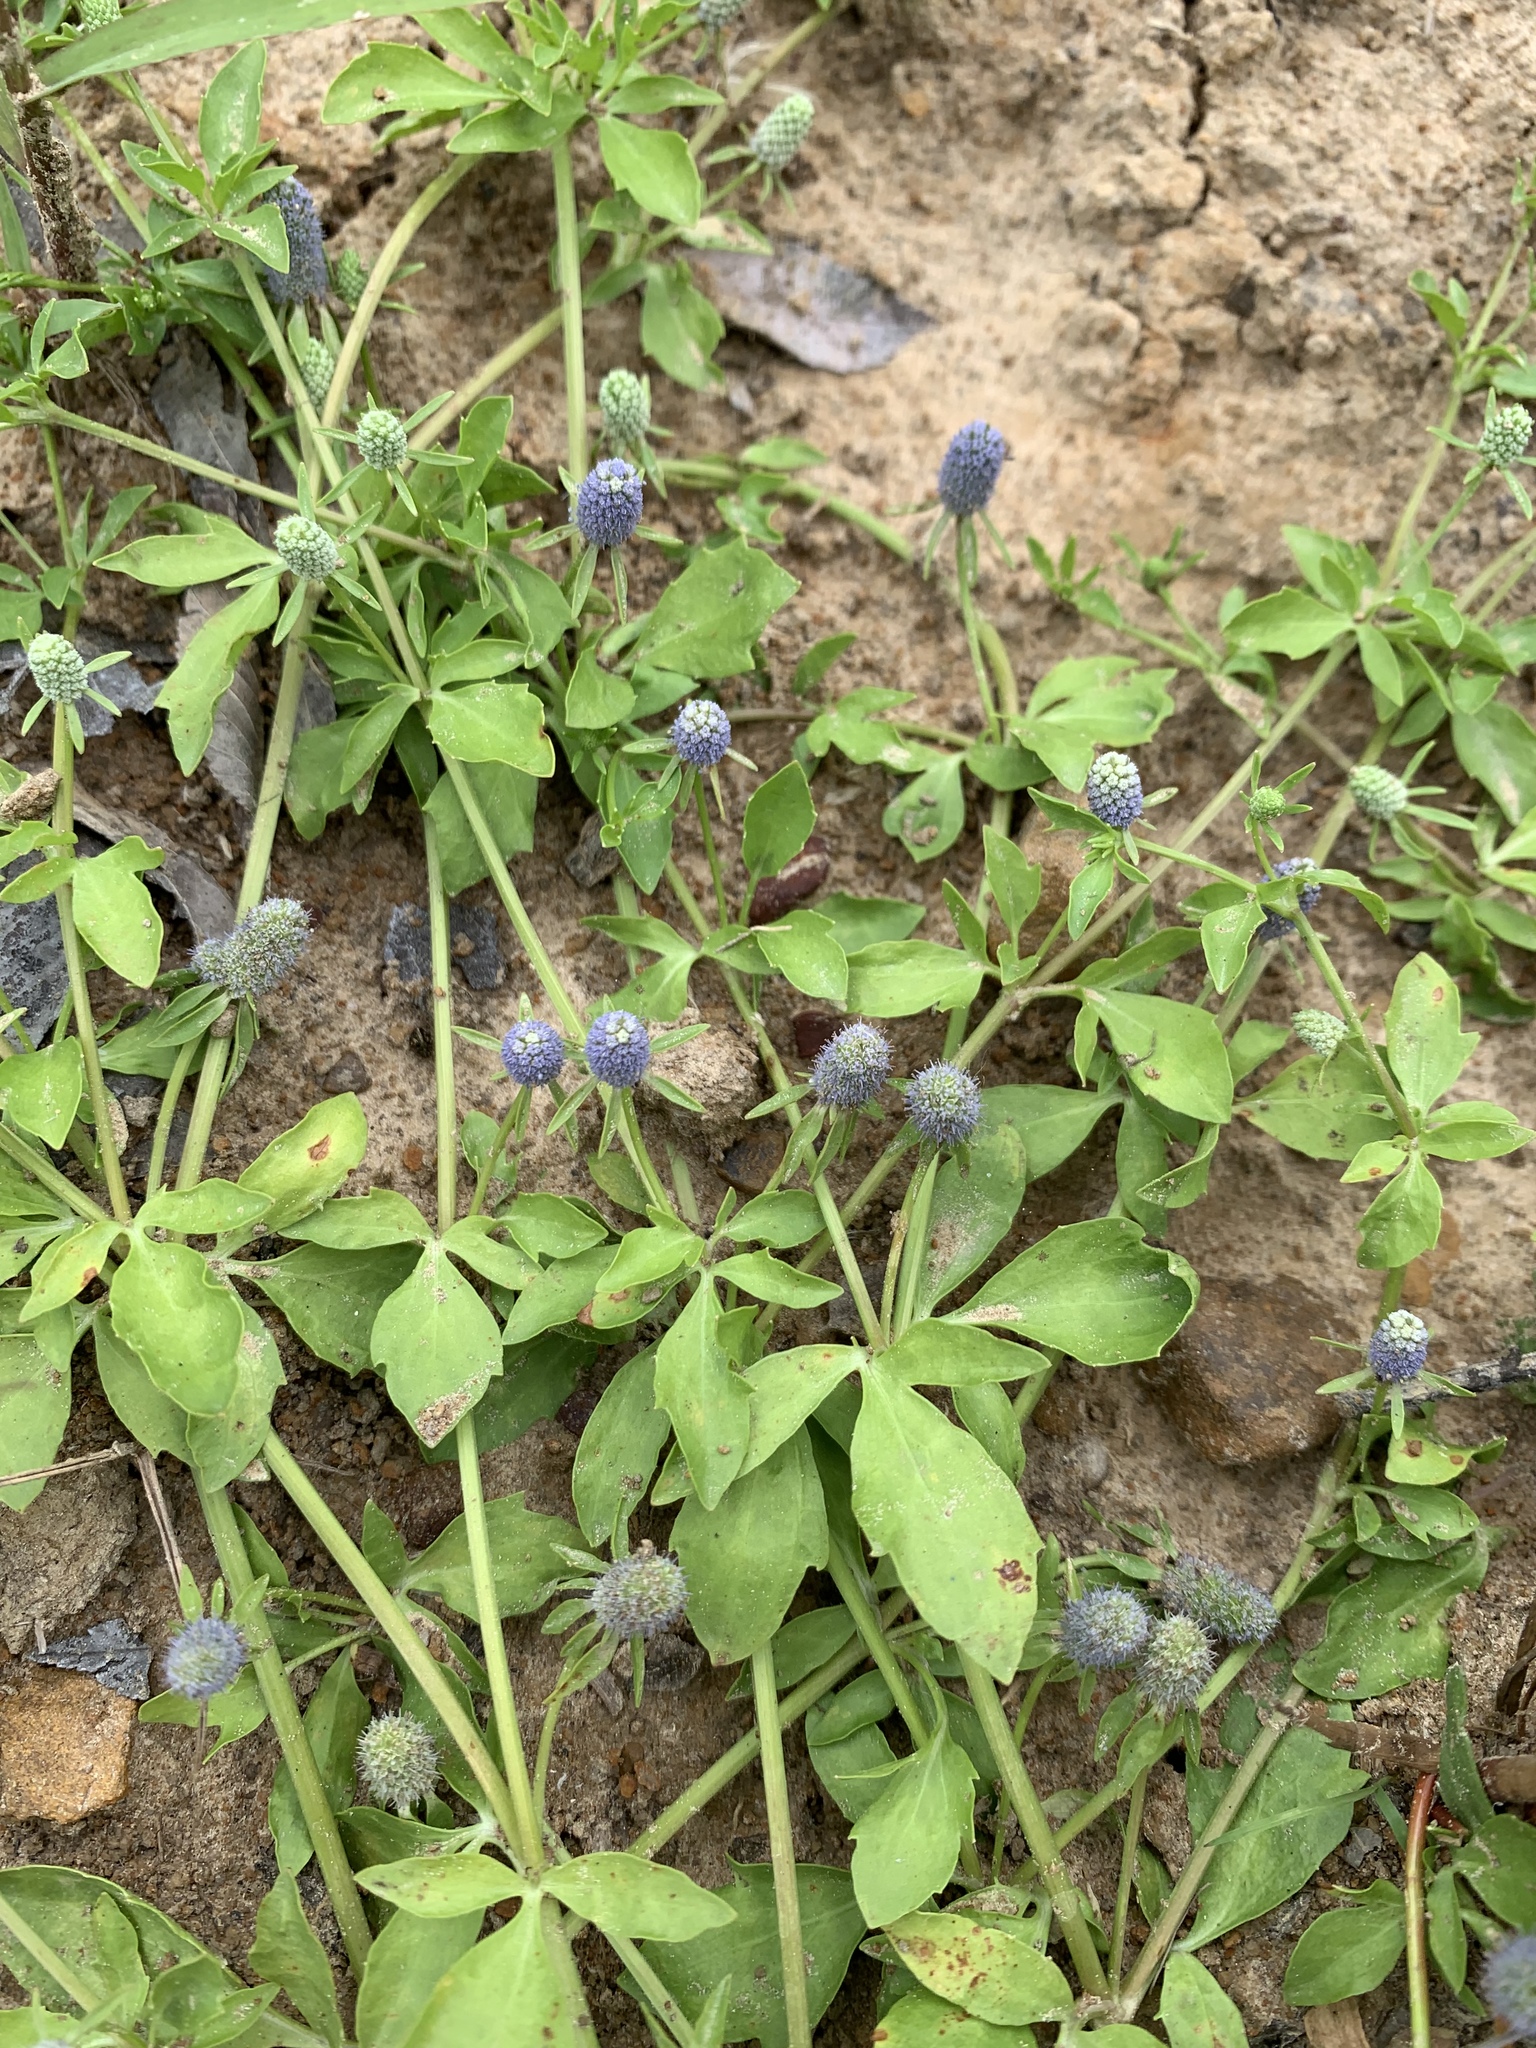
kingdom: Plantae
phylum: Tracheophyta
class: Magnoliopsida
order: Apiales
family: Apiaceae
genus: Eryngium
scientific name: Eryngium prostratum
